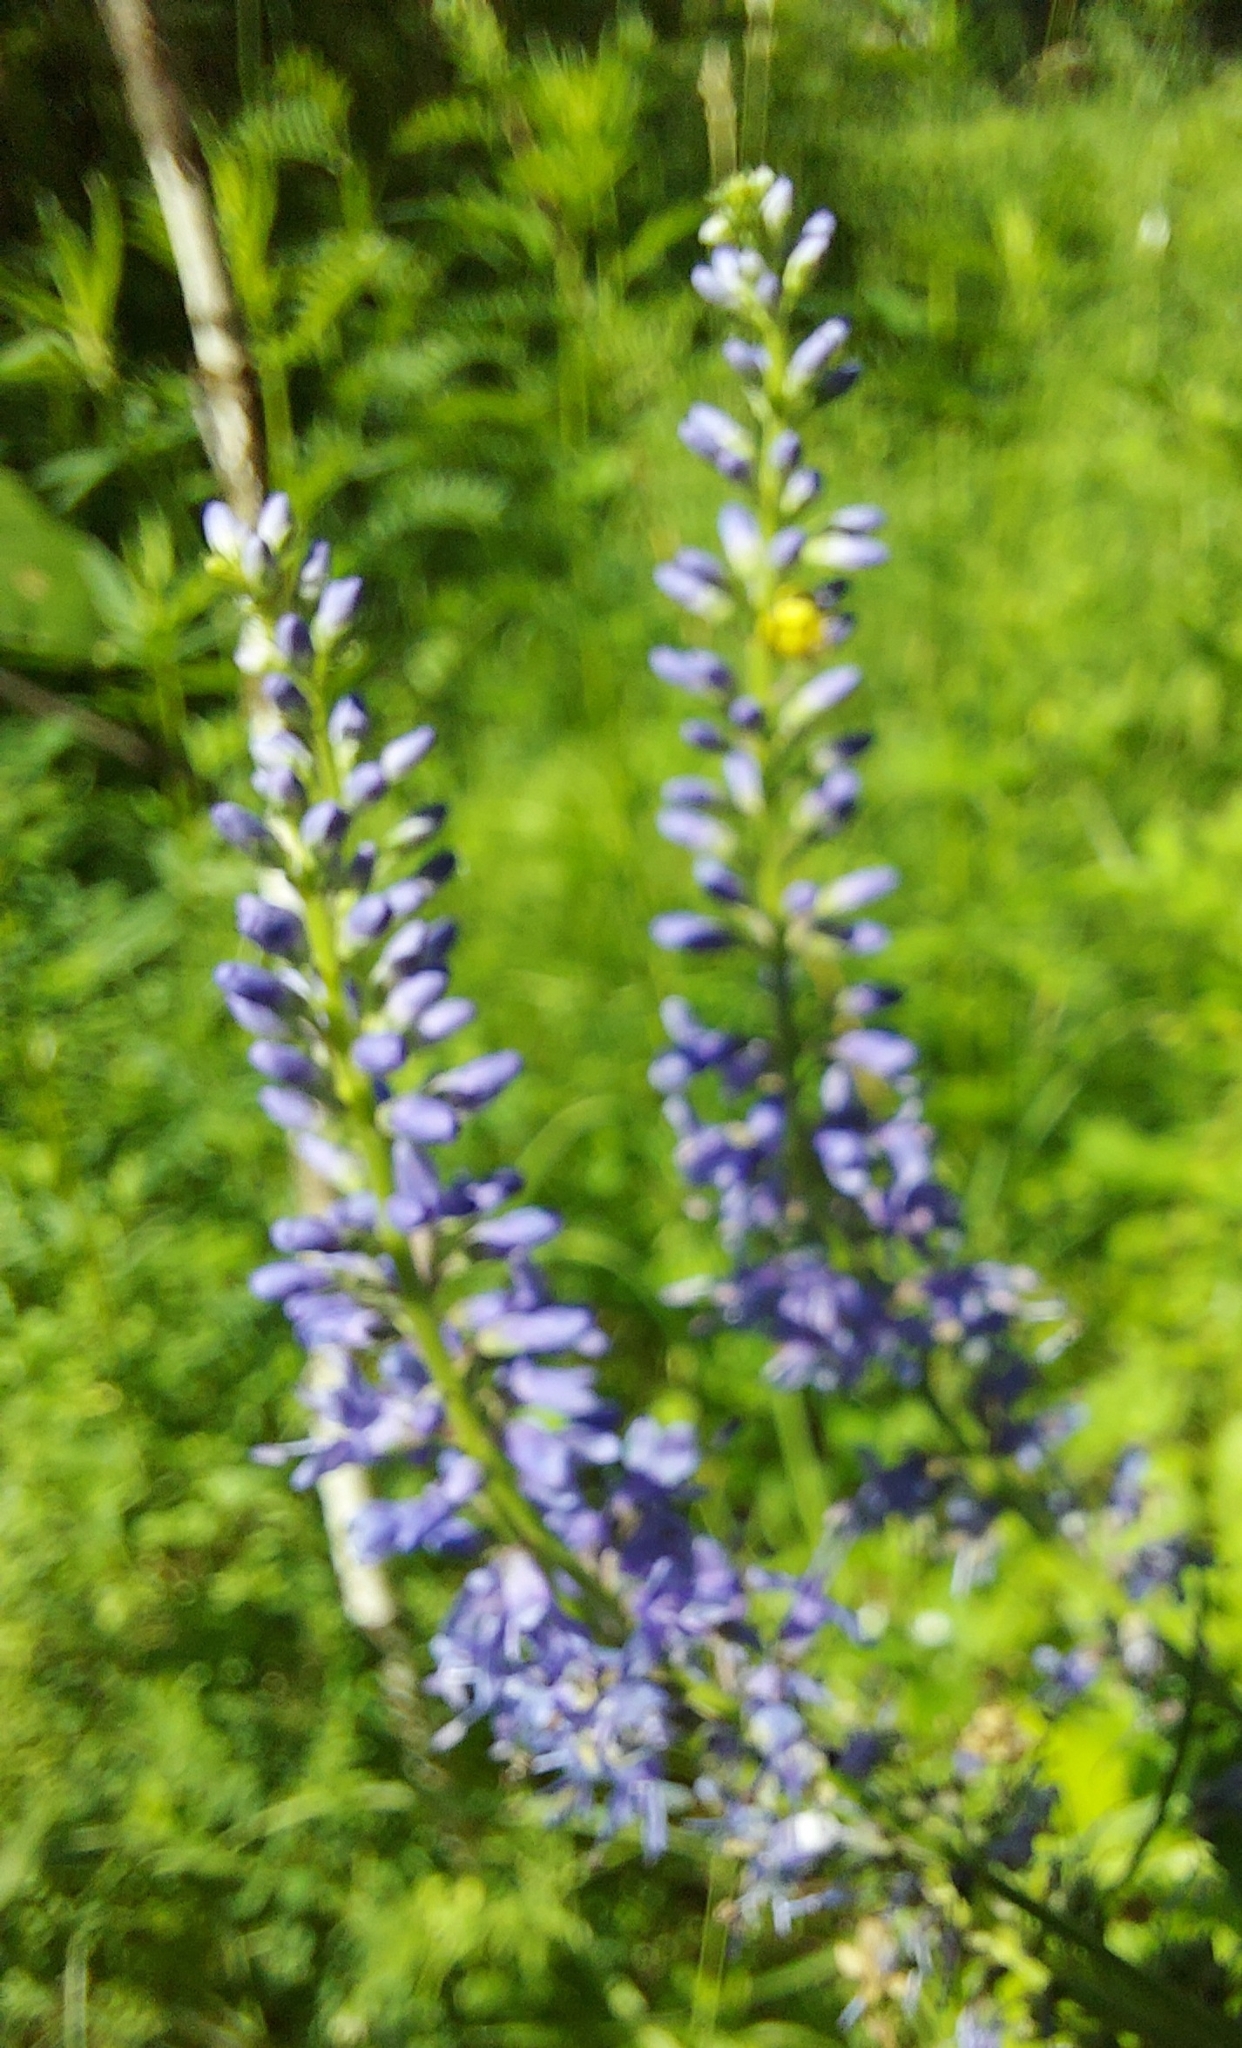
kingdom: Plantae
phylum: Tracheophyta
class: Magnoliopsida
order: Lamiales
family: Plantaginaceae
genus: Veronica
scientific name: Veronica longifolia
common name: Garden speedwell
